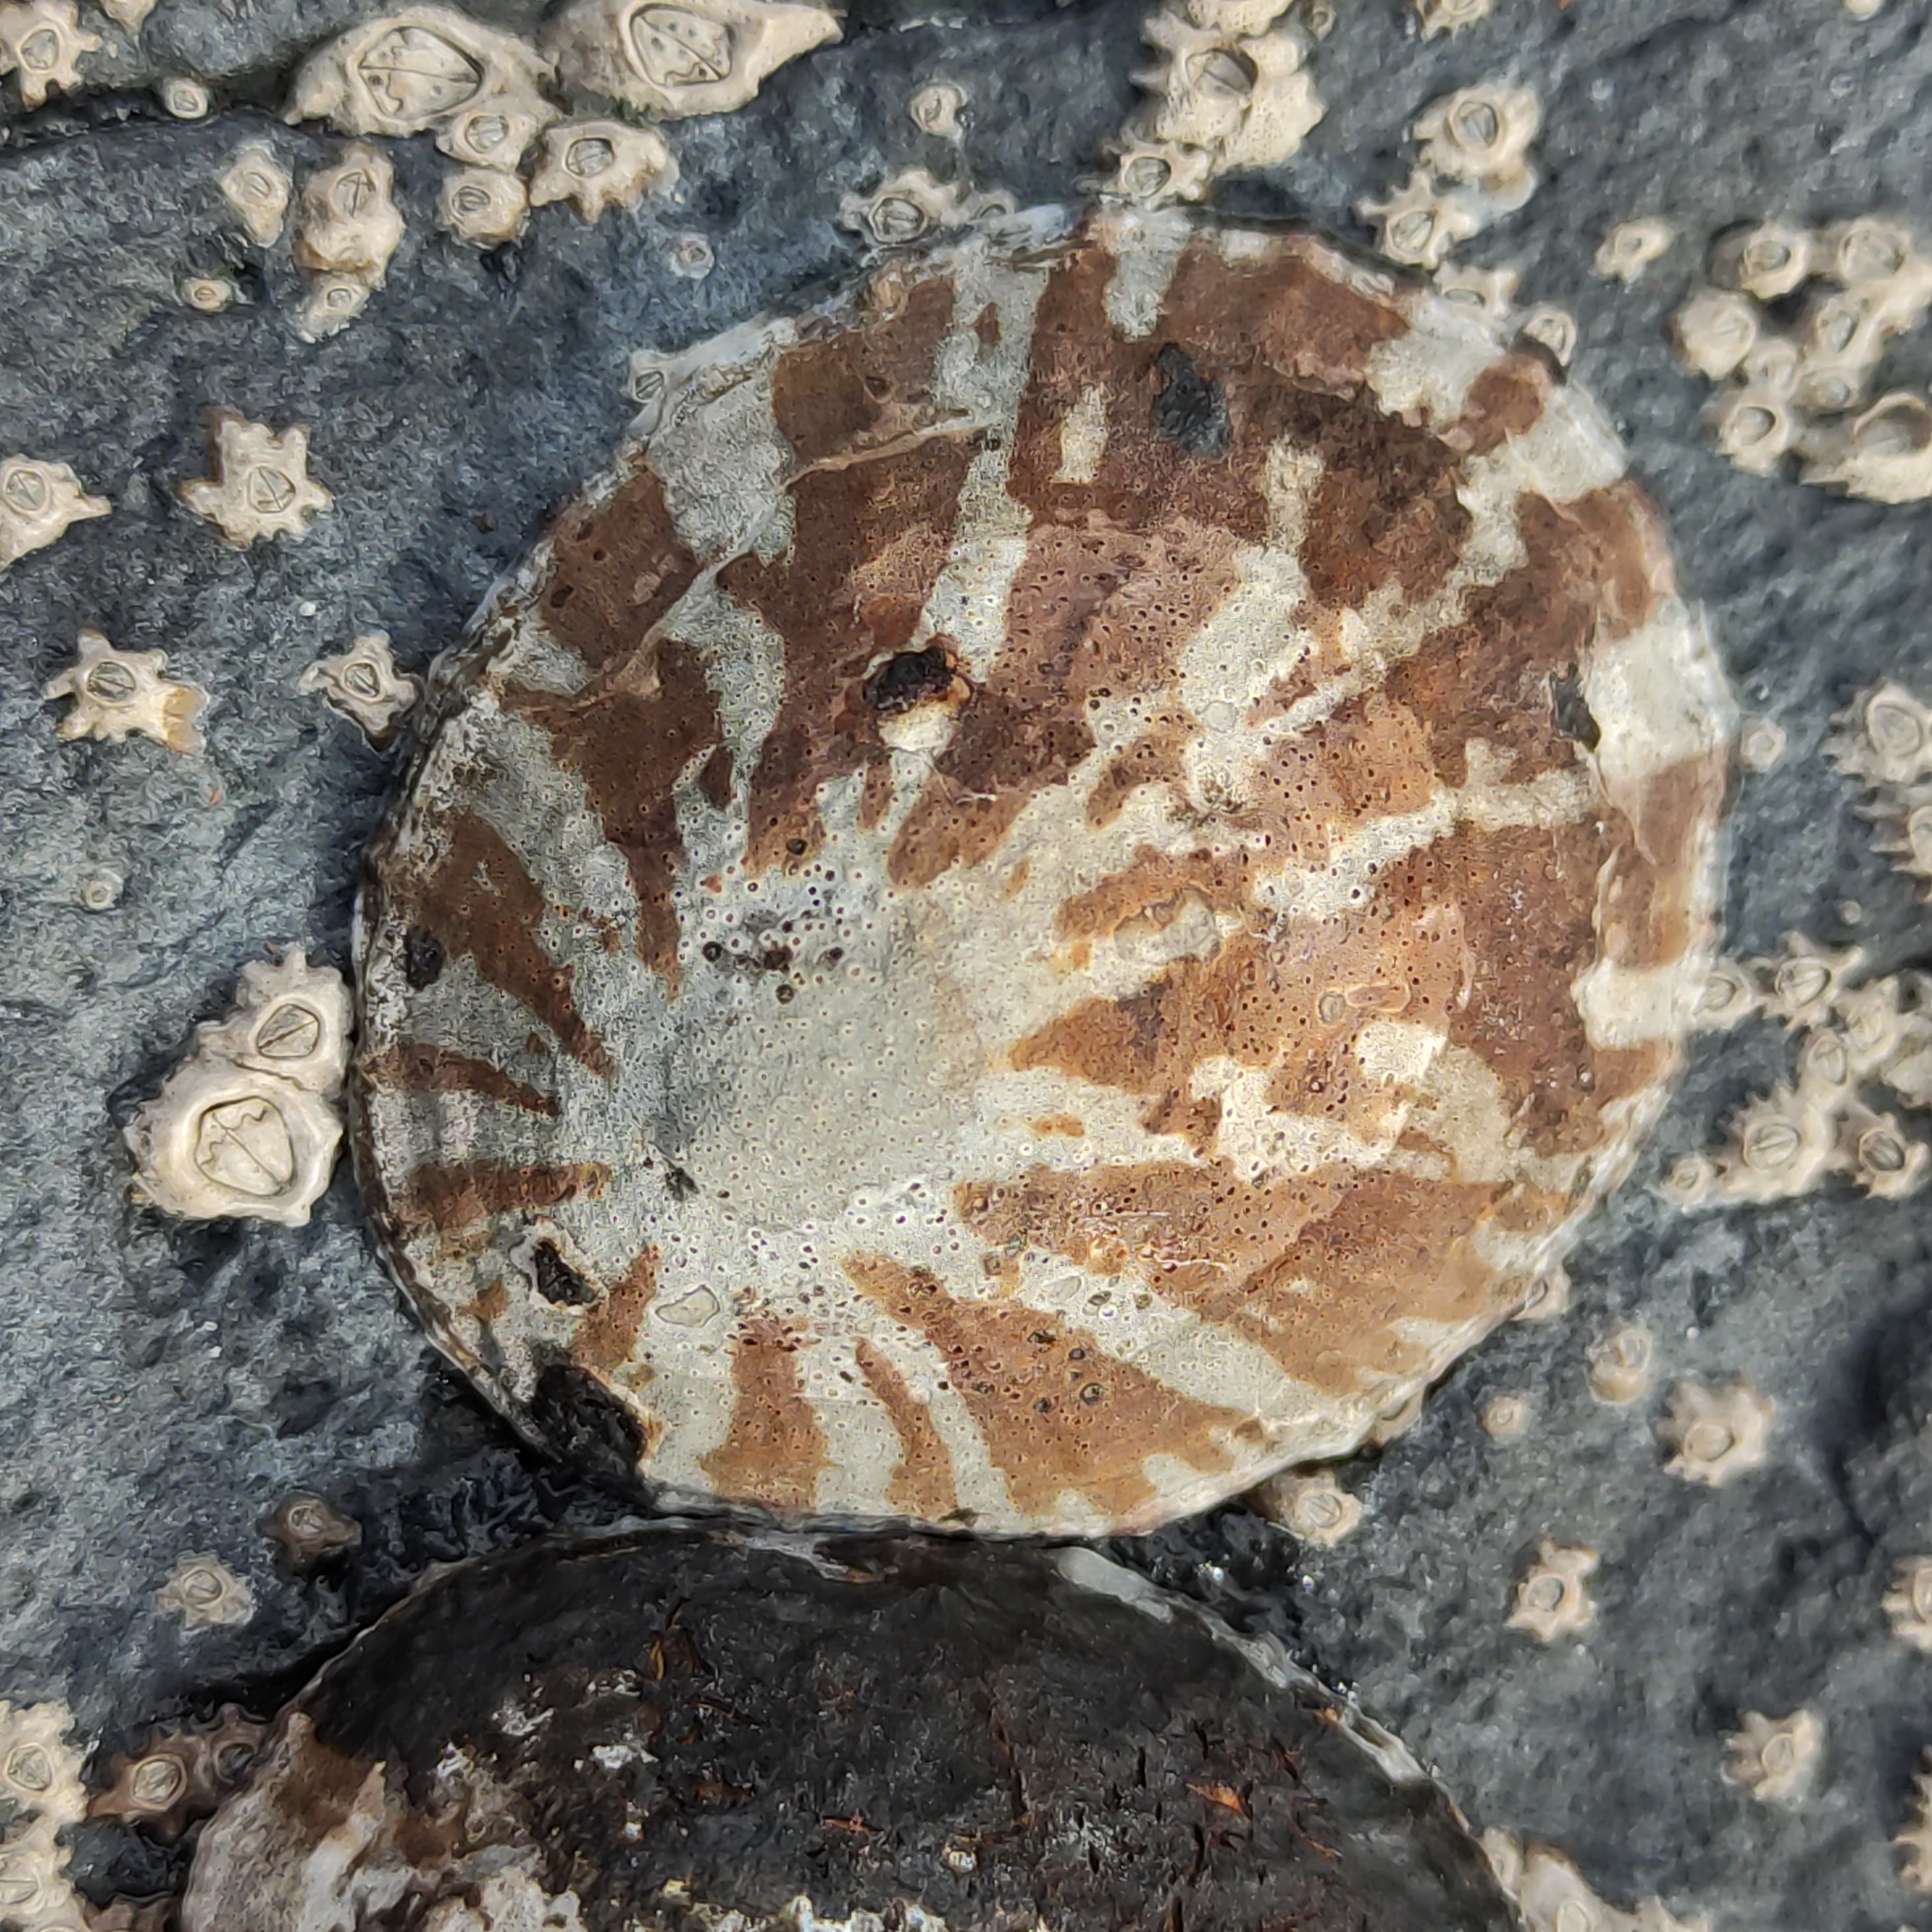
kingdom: Animalia
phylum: Mollusca
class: Gastropoda
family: Nacellidae
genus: Cellana
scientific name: Cellana radians
